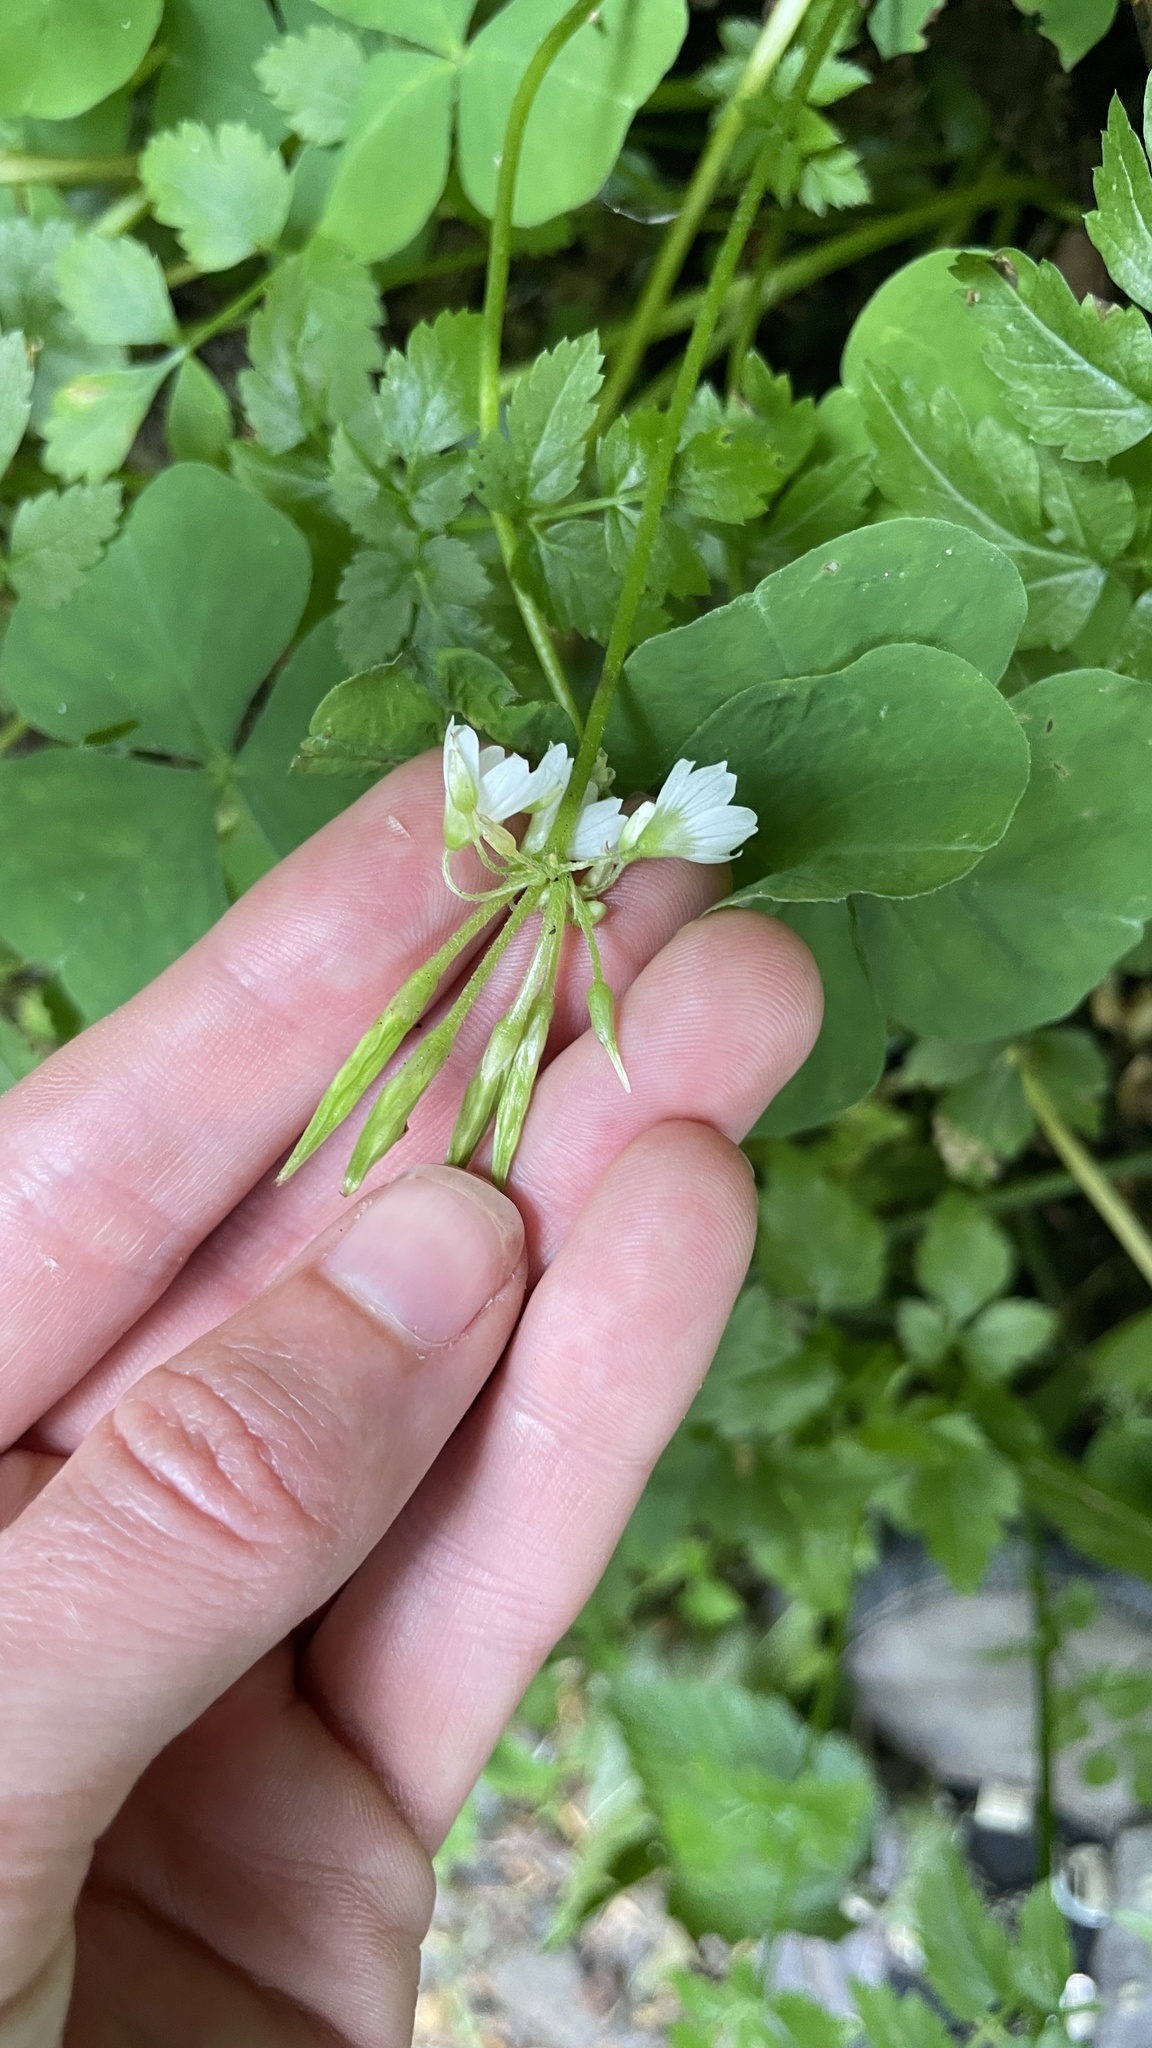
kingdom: Plantae
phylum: Tracheophyta
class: Magnoliopsida
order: Oxalidales
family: Oxalidaceae
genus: Oxalis
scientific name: Oxalis trilliifolia
